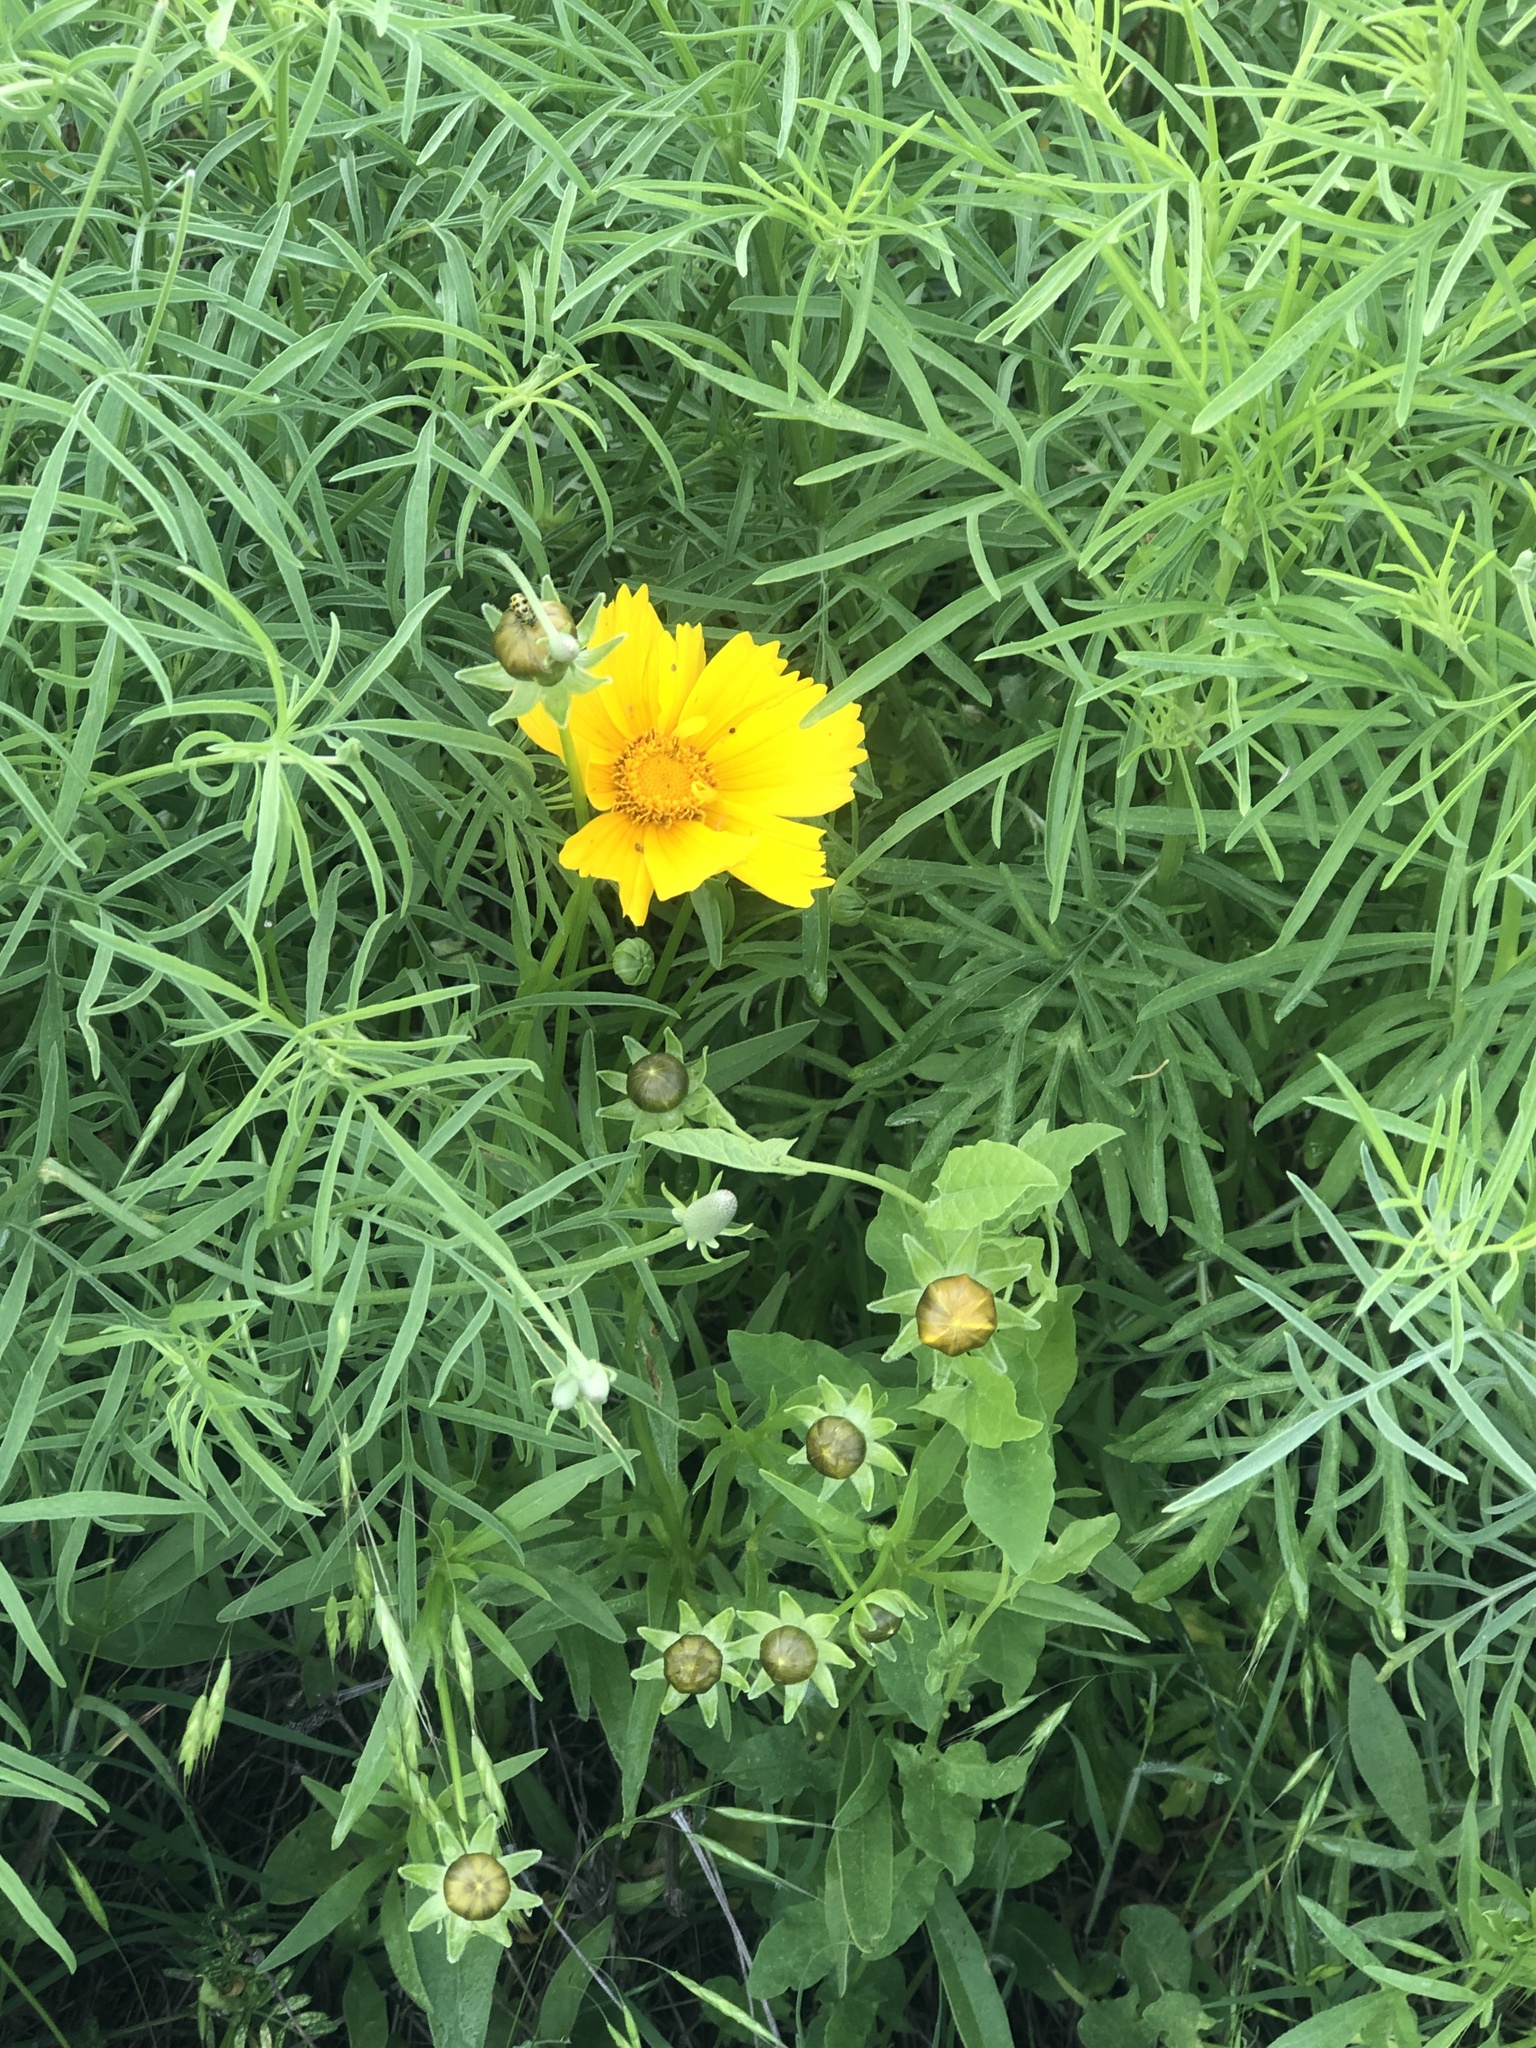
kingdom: Plantae
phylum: Tracheophyta
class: Magnoliopsida
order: Asterales
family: Asteraceae
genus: Coreopsis
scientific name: Coreopsis lanceolata
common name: Garden coreopsis
